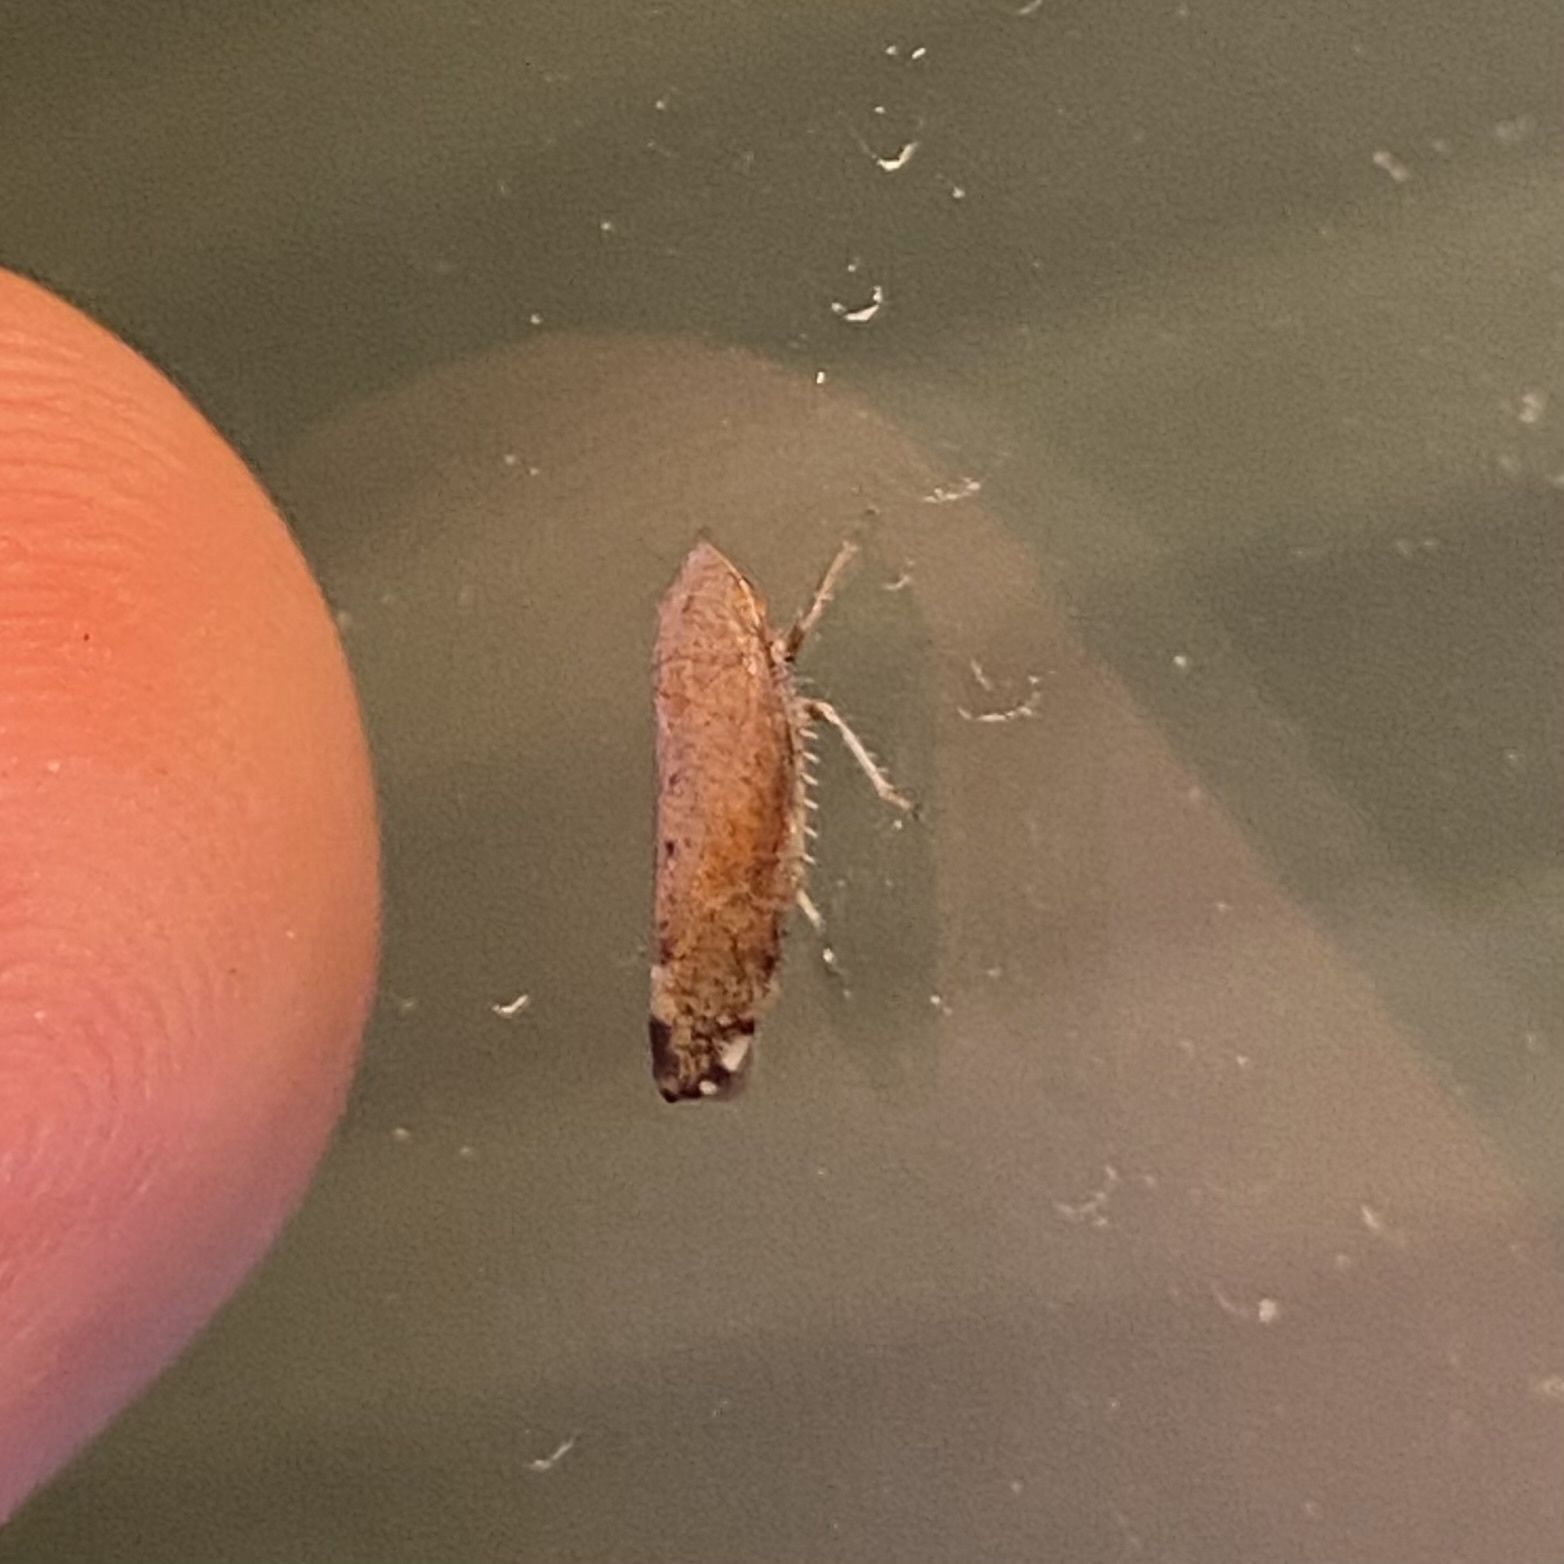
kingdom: Animalia
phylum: Arthropoda
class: Insecta
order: Hemiptera
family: Cicadellidae
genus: Fieberiella
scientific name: Fieberiella florii
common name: Flor’s leafhopper
